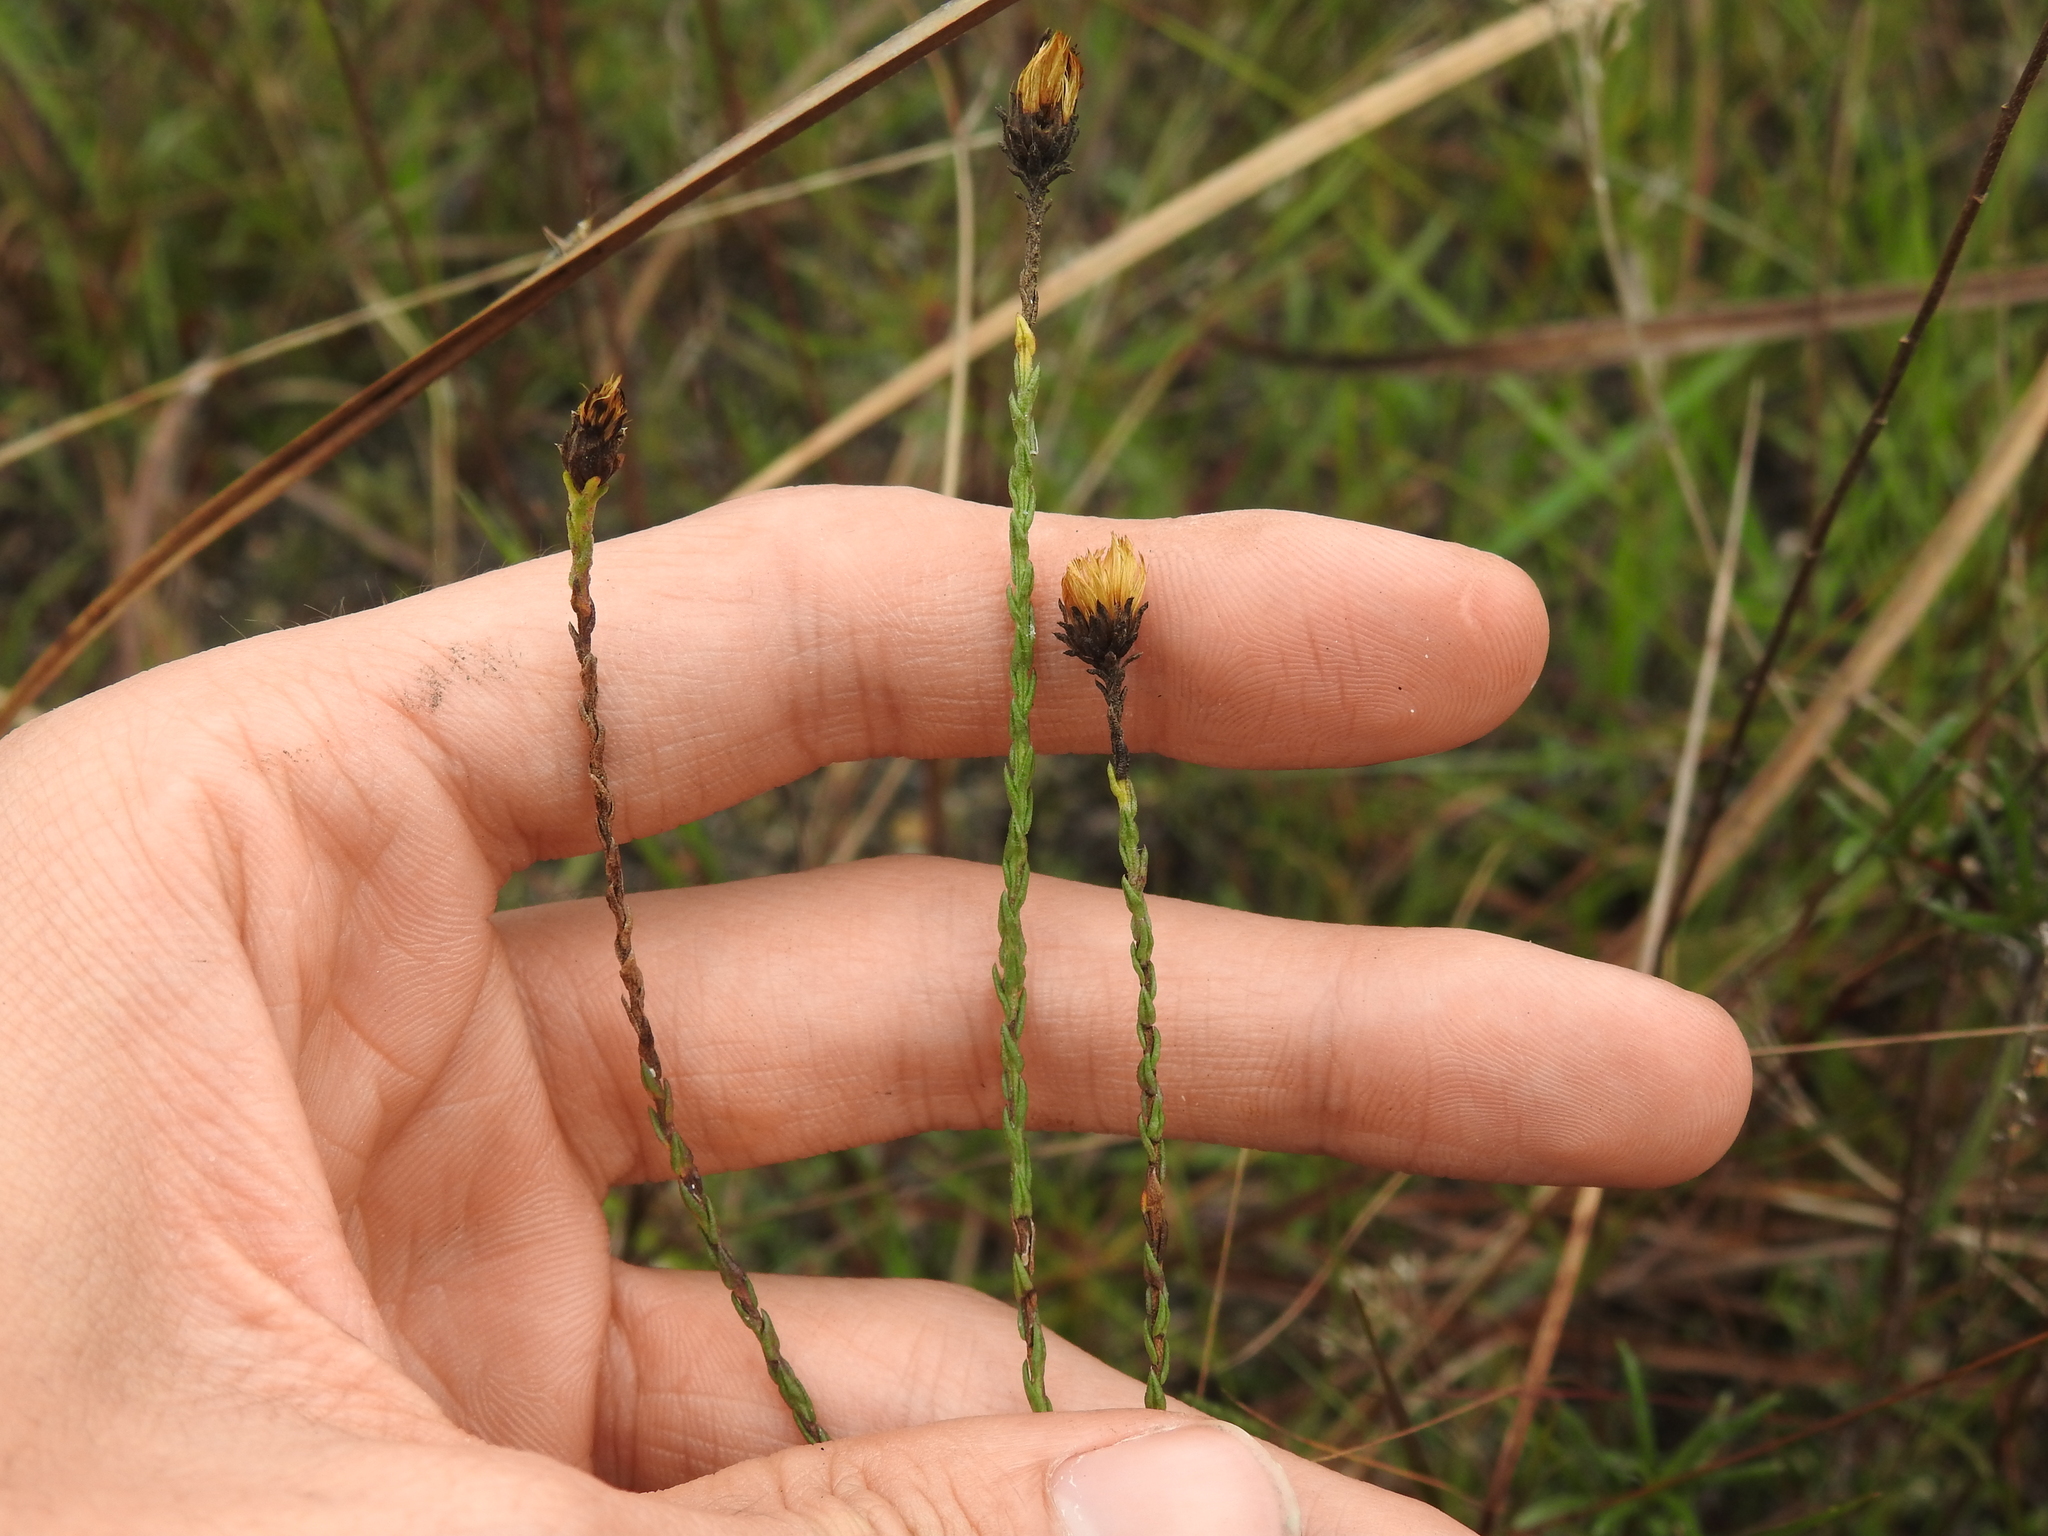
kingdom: Plantae
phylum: Tracheophyta
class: Magnoliopsida
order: Asterales
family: Asteraceae
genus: Symphyotrichum
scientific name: Symphyotrichum adnatum
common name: Scale-leaf aster
